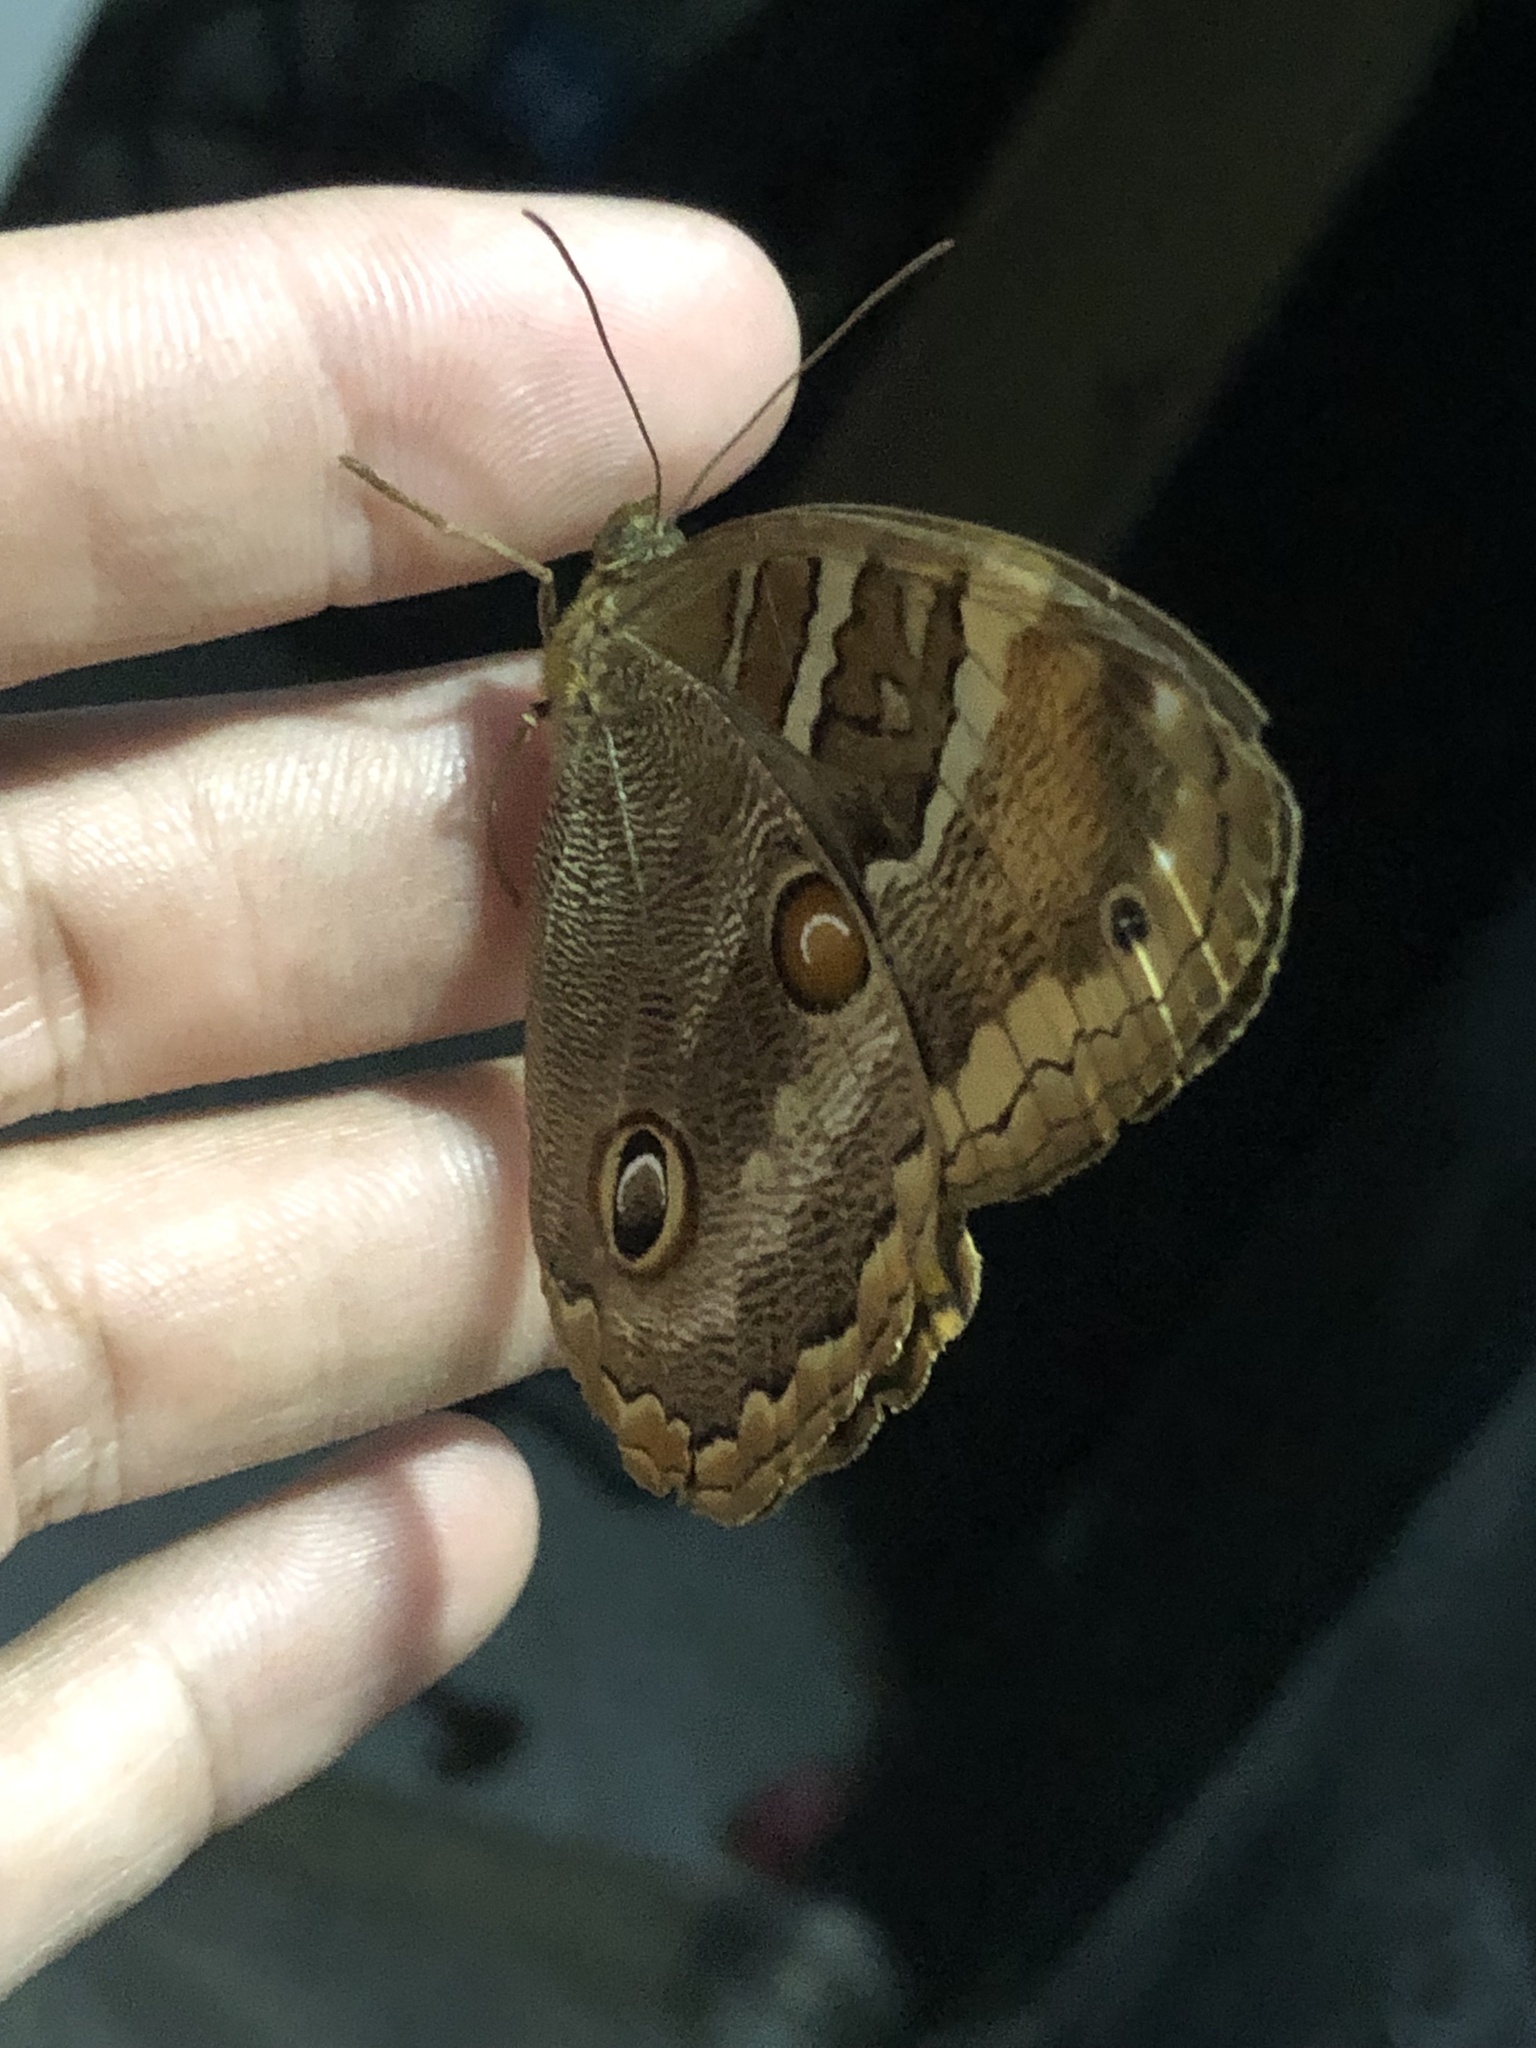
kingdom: Animalia
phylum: Arthropoda
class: Insecta
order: Lepidoptera
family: Nymphalidae
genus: Opoptera
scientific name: Opoptera syme
